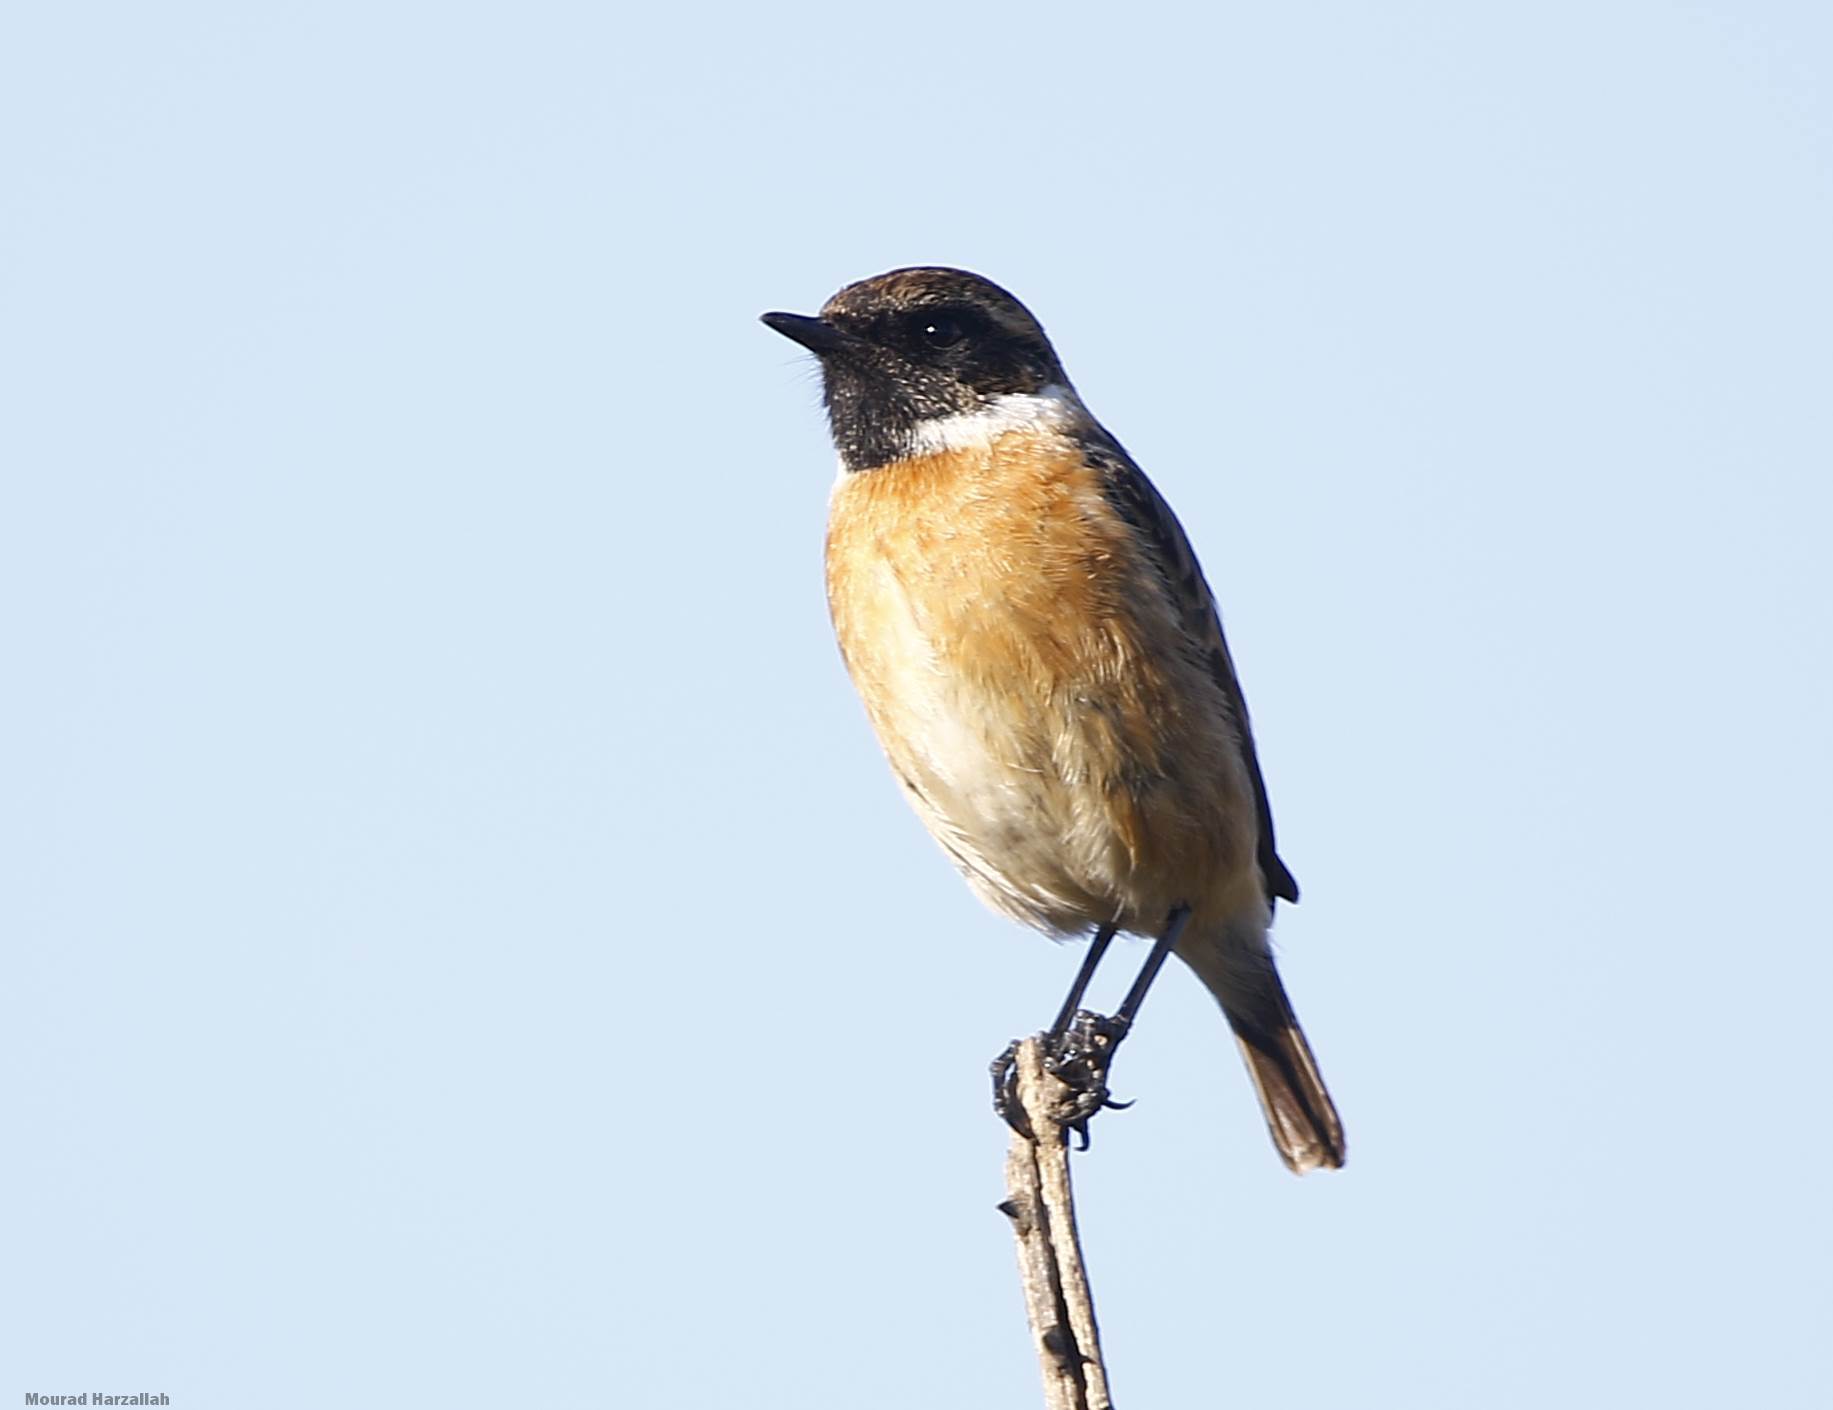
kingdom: Animalia
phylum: Chordata
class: Aves
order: Passeriformes
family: Muscicapidae
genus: Saxicola
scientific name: Saxicola rubicola
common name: European stonechat
